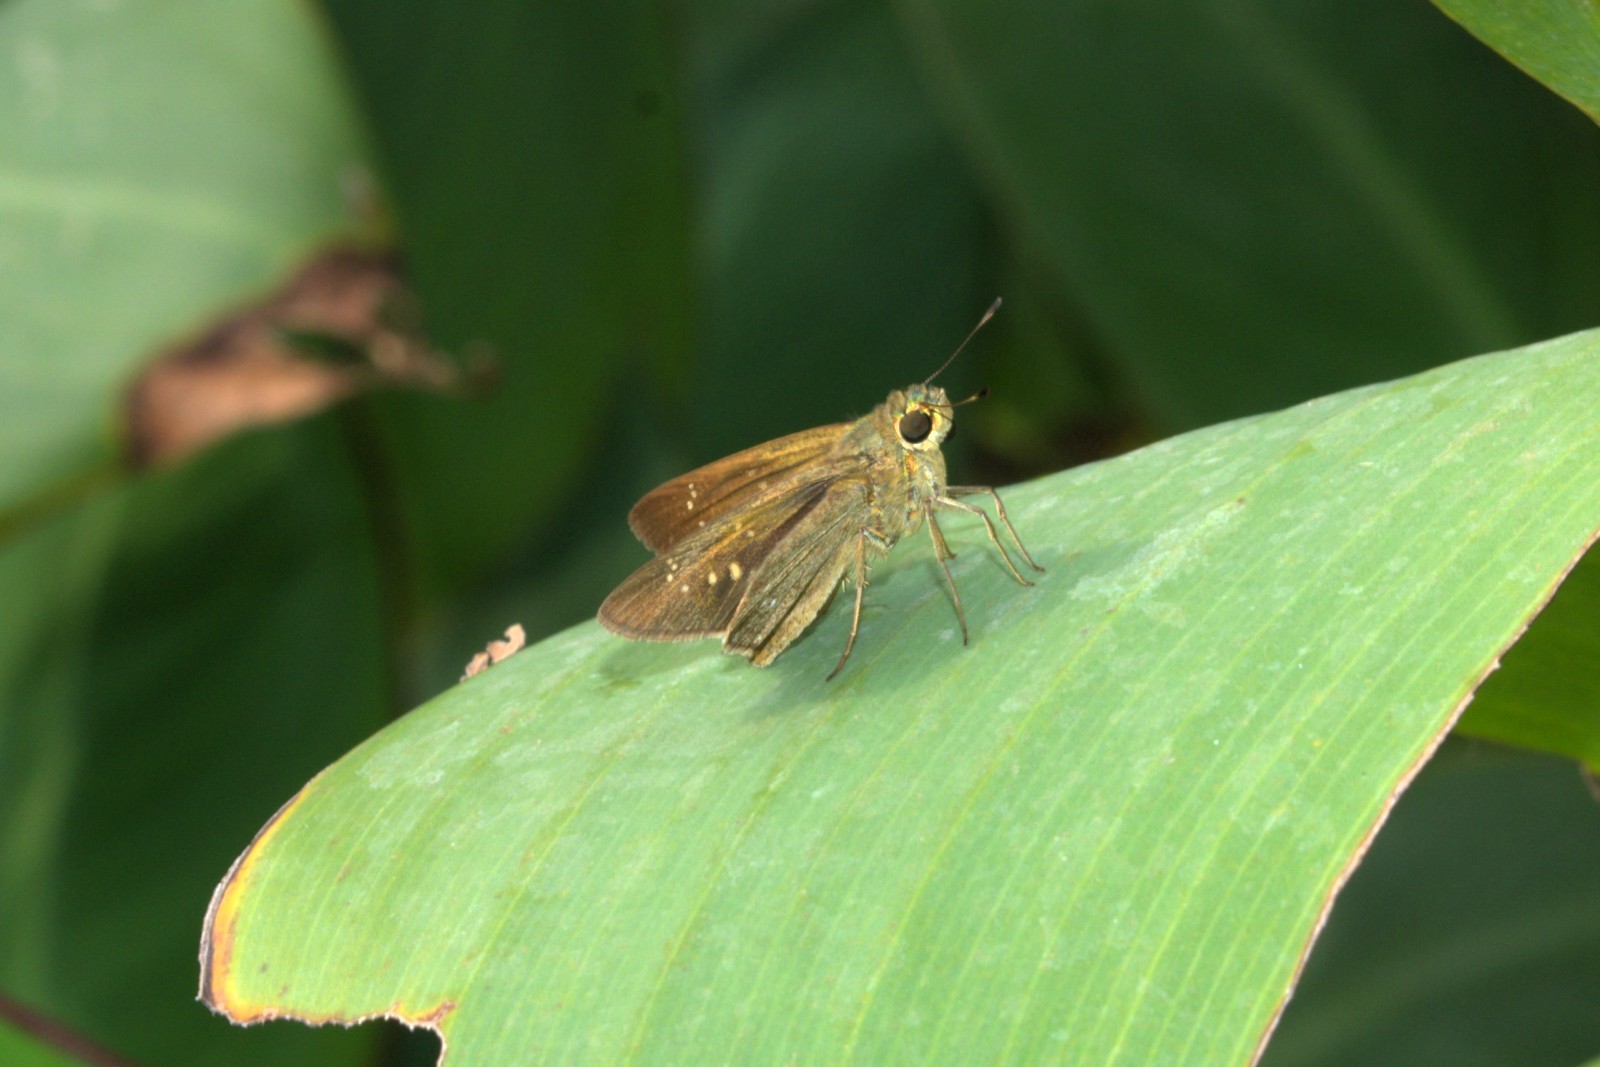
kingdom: Animalia
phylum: Arthropoda
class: Insecta
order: Lepidoptera
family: Hesperiidae
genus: Pelopidas
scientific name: Pelopidas agna
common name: Little branded swift
